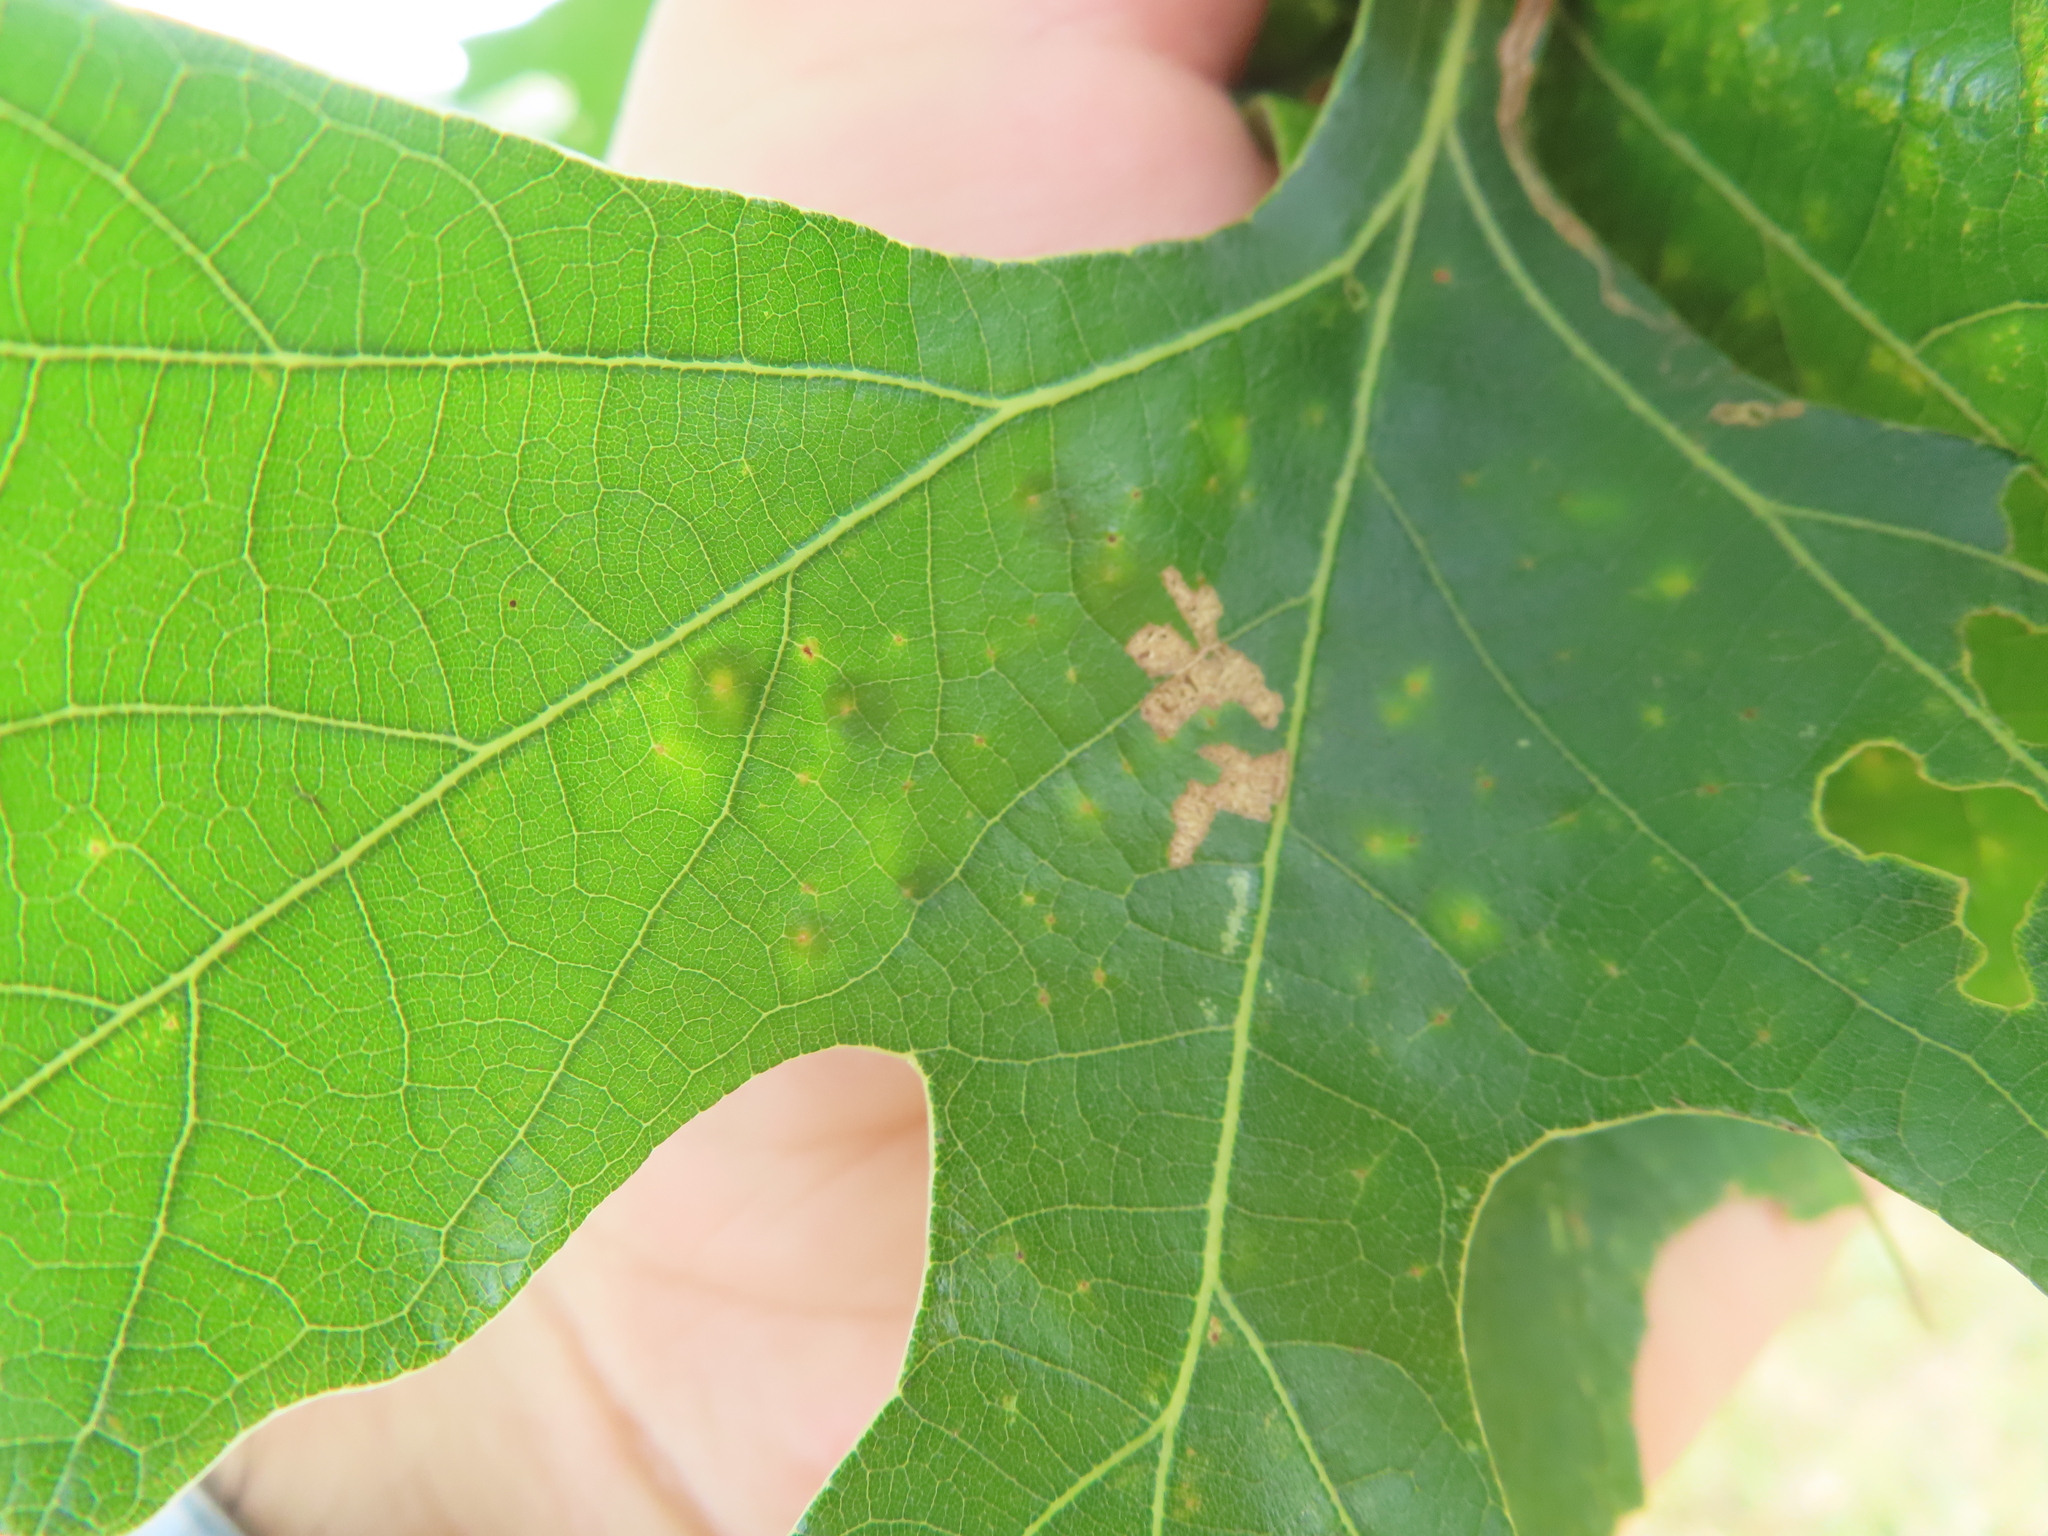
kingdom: Animalia
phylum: Arthropoda
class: Insecta
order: Hymenoptera
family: Cynipidae
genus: Phylloteras
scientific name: Phylloteras
